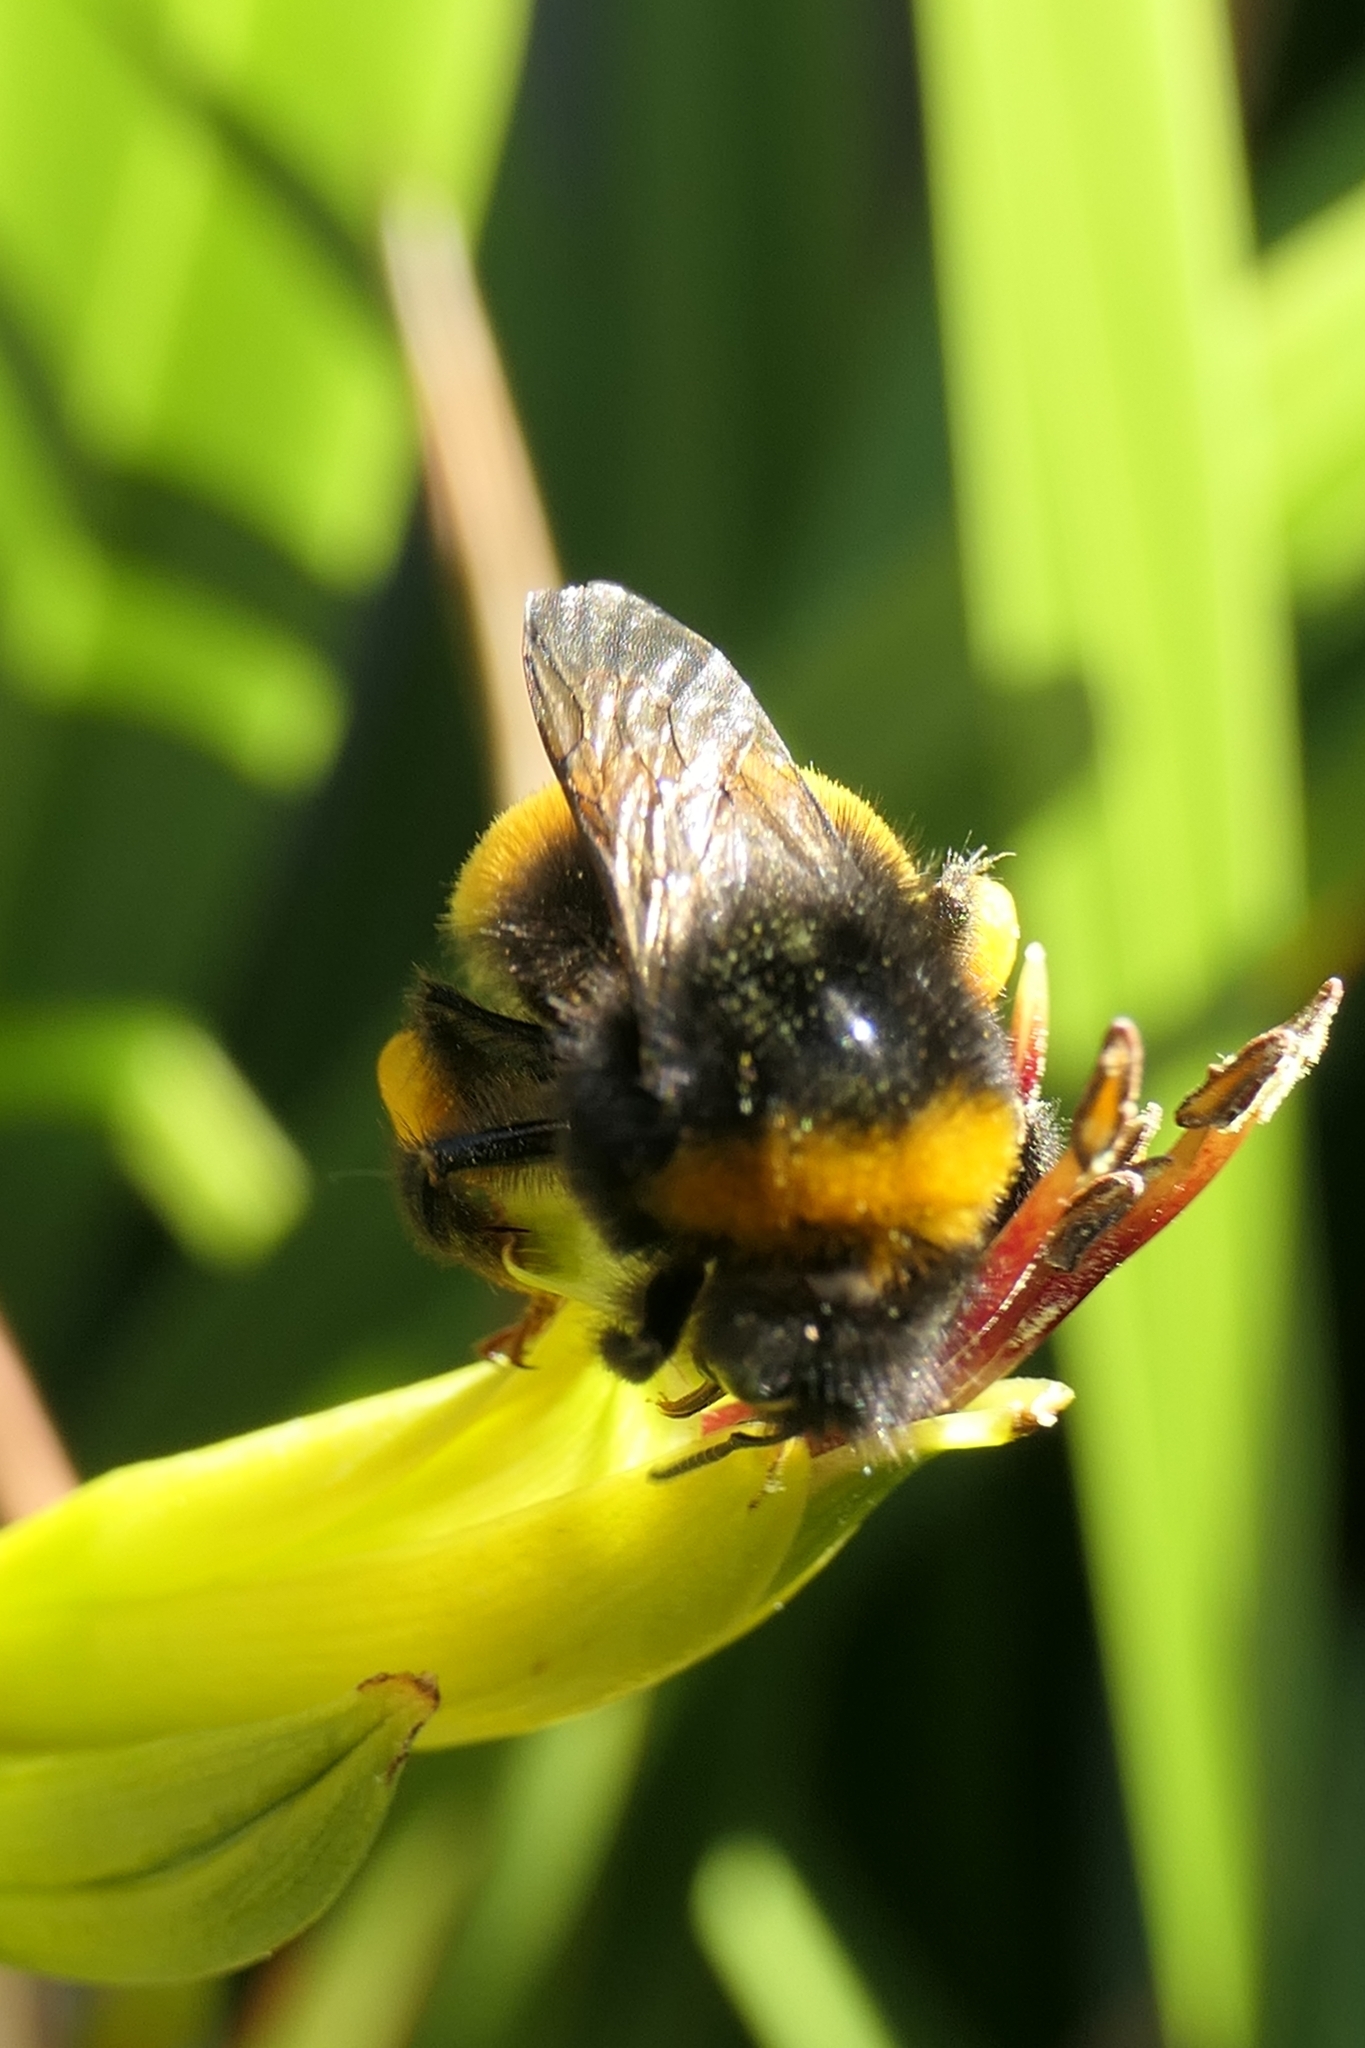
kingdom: Animalia
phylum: Arthropoda
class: Insecta
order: Hymenoptera
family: Apidae
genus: Bombus
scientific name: Bombus terrestris
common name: Buff-tailed bumblebee
